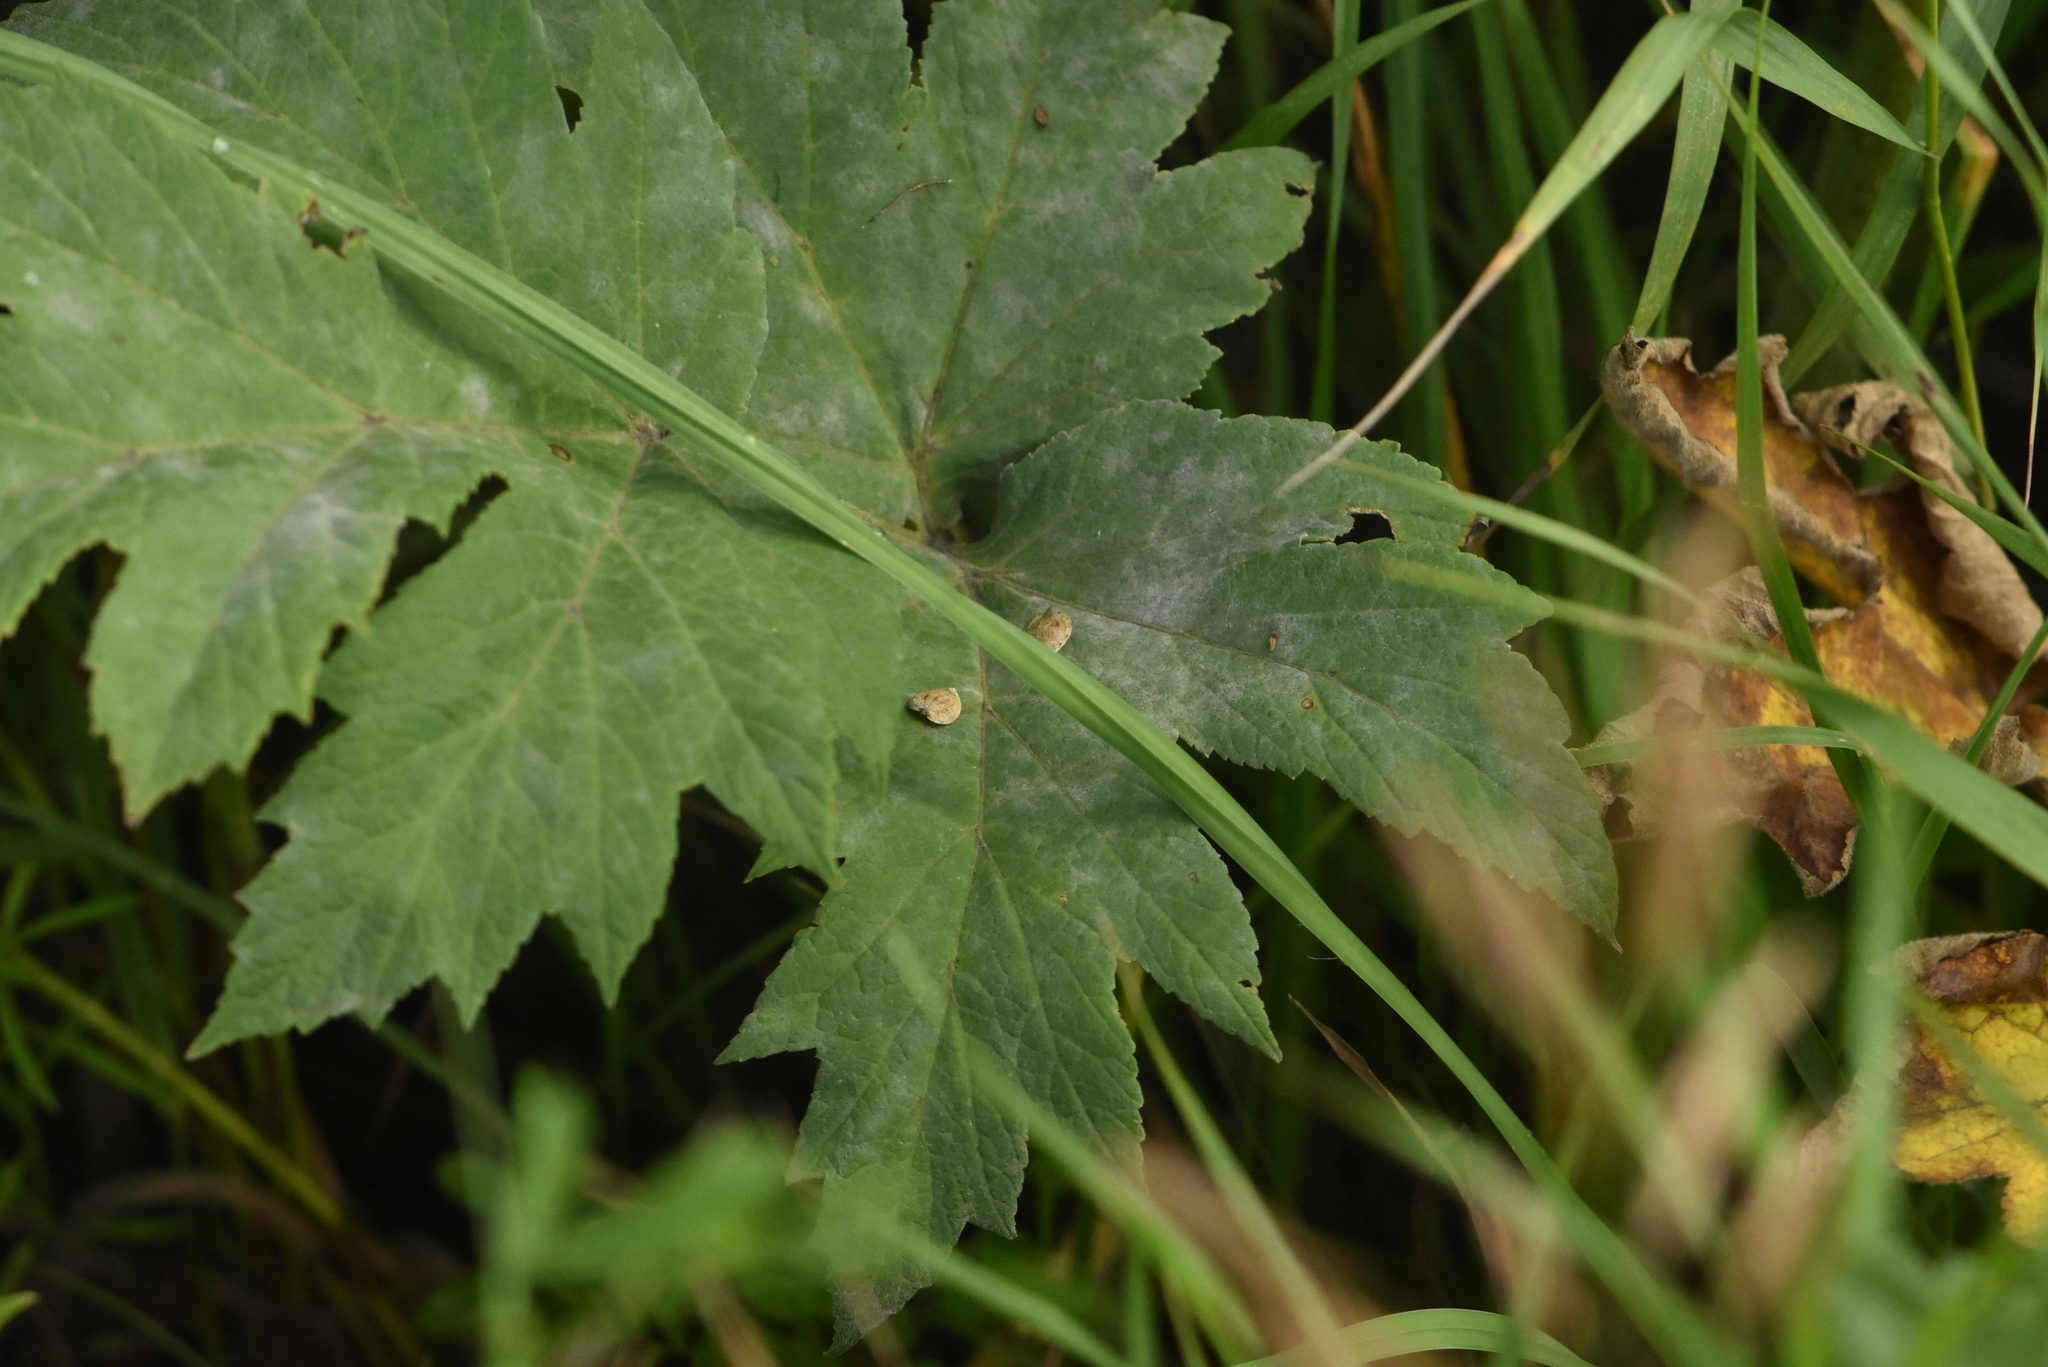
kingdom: Plantae
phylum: Tracheophyta
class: Magnoliopsida
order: Apiales
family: Apiaceae
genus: Heracleum
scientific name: Heracleum dissectum
